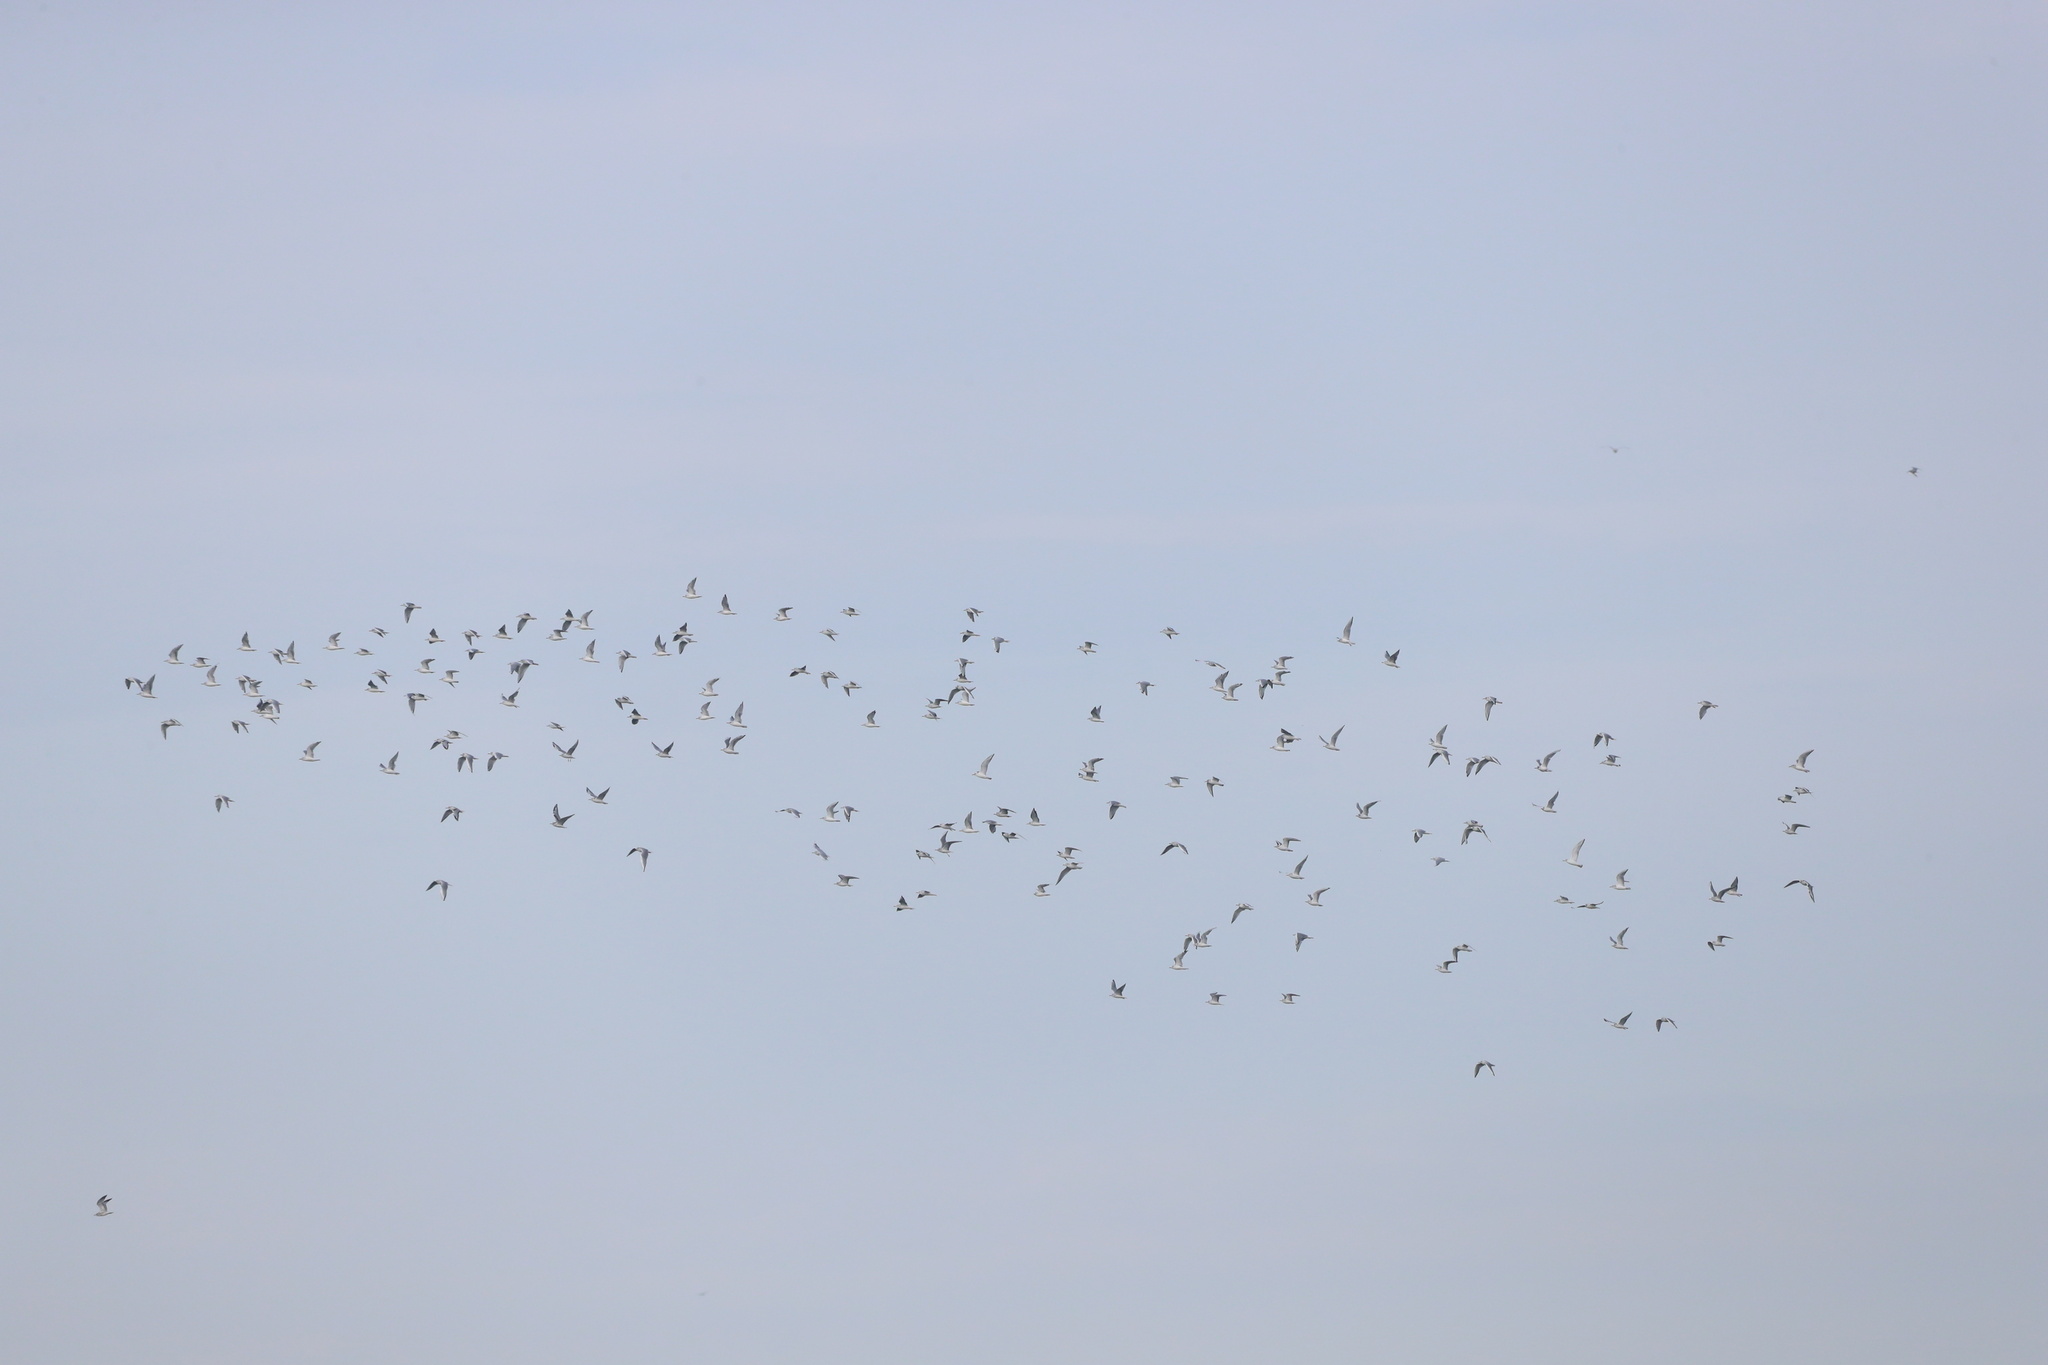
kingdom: Animalia
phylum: Chordata
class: Aves
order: Charadriiformes
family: Laridae
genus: Chroicocephalus
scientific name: Chroicocephalus philadelphia
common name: Bonaparte's gull
